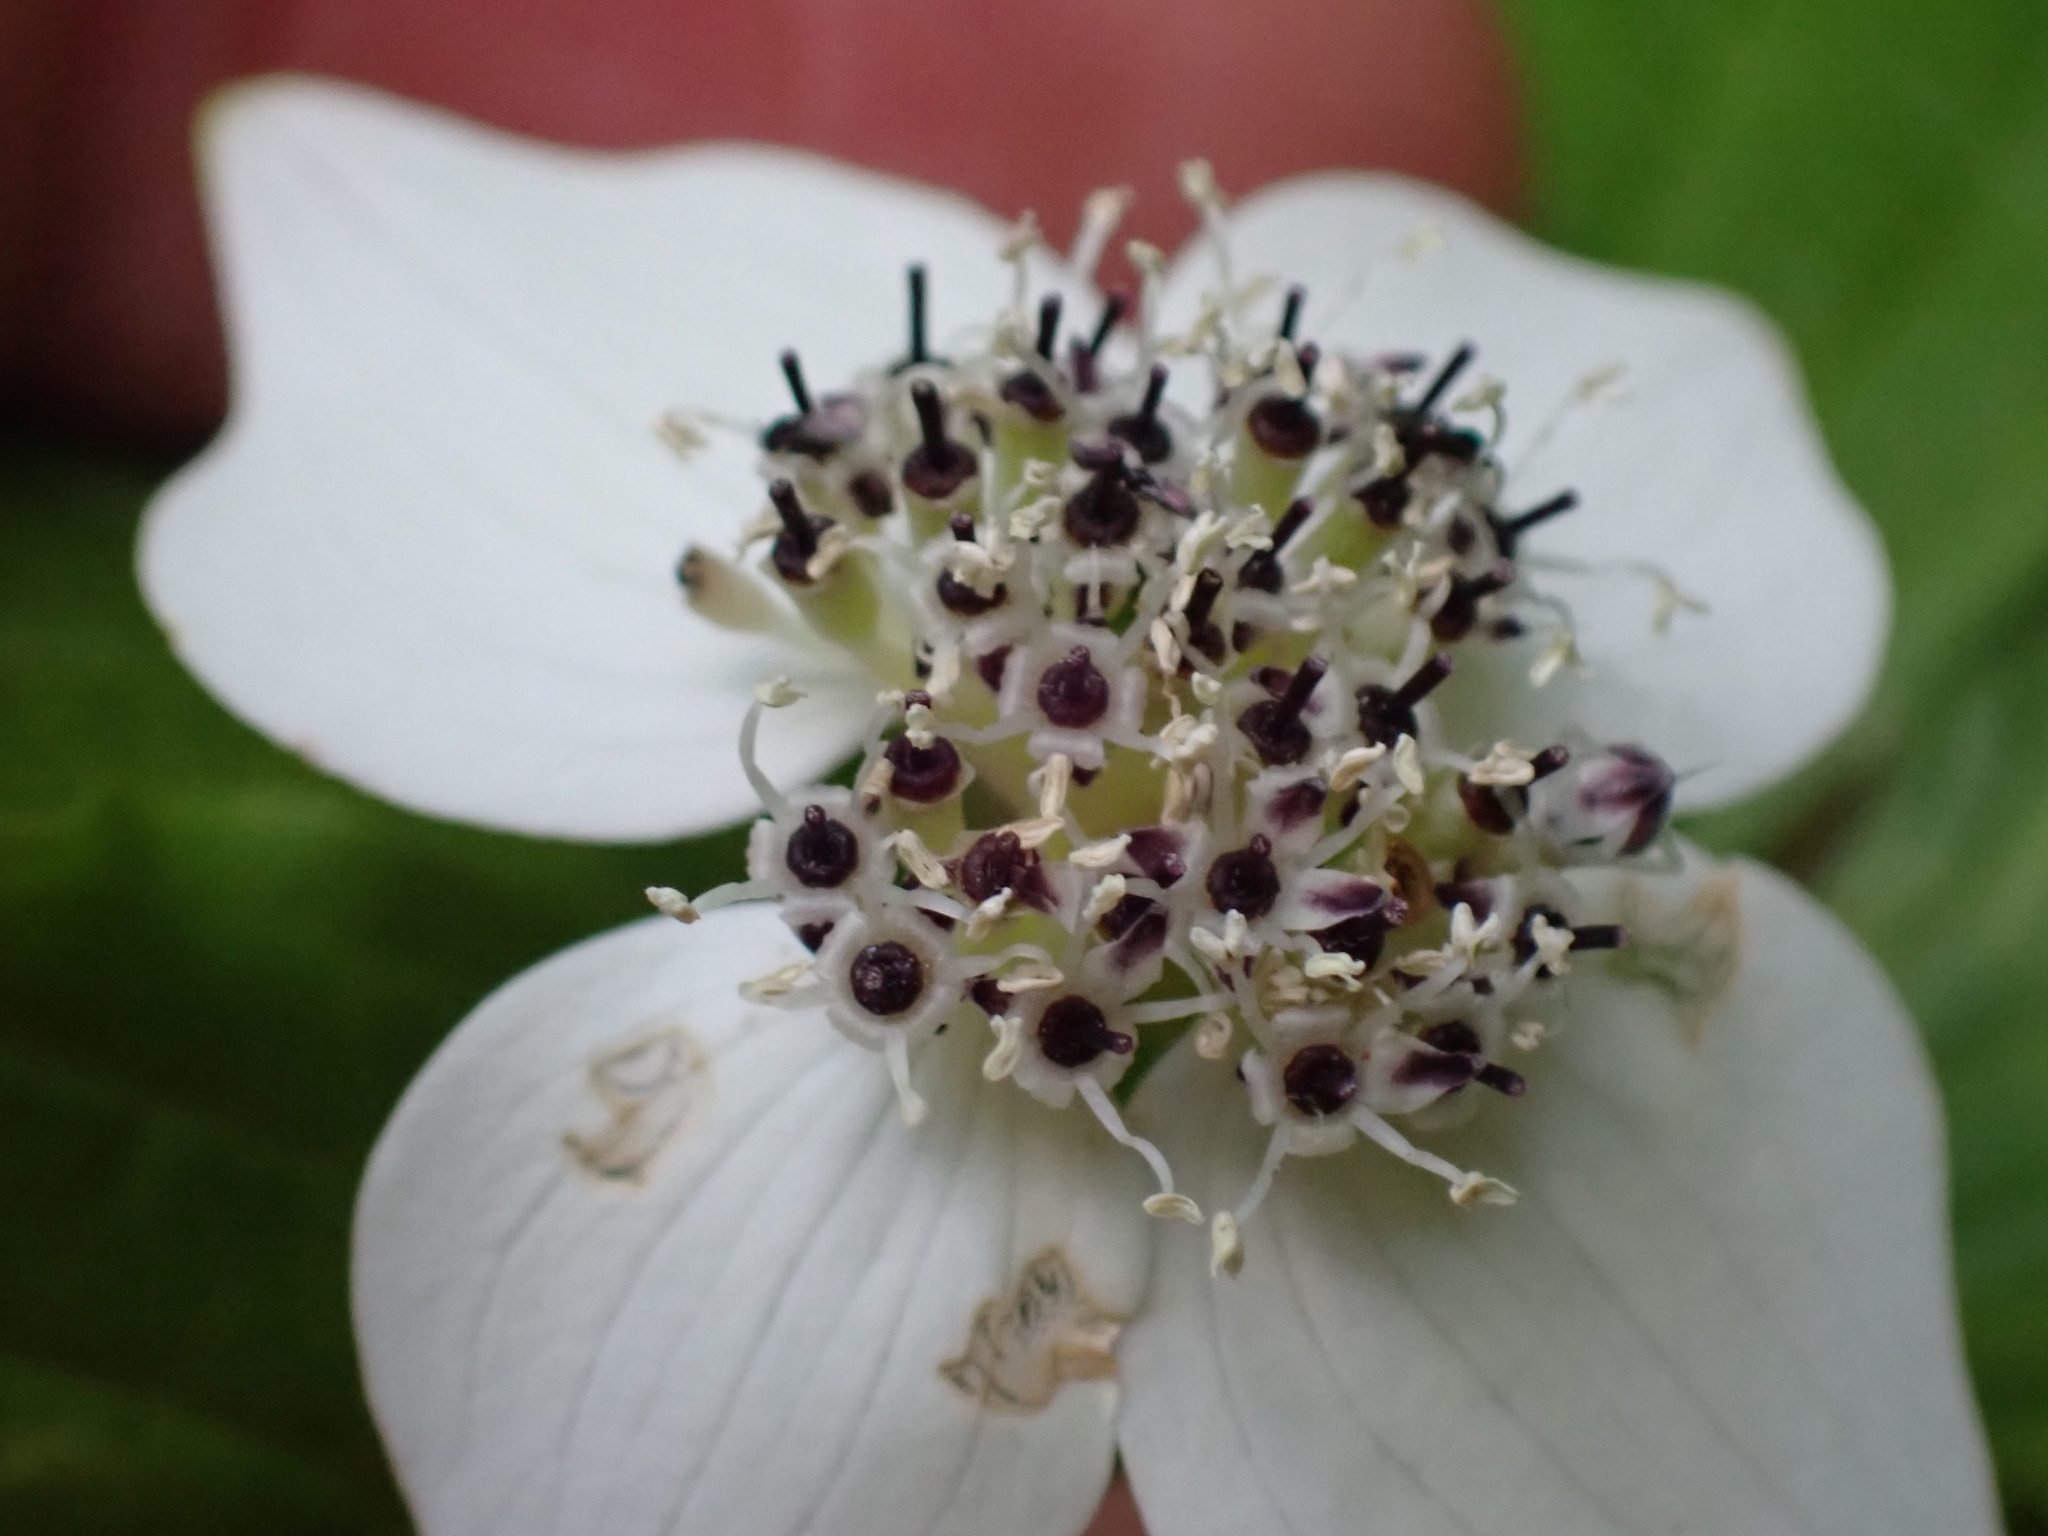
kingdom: Plantae
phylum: Tracheophyta
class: Magnoliopsida
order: Cornales
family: Cornaceae
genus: Cornus
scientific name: Cornus unalaschkensis
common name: Alaska bunchberry
